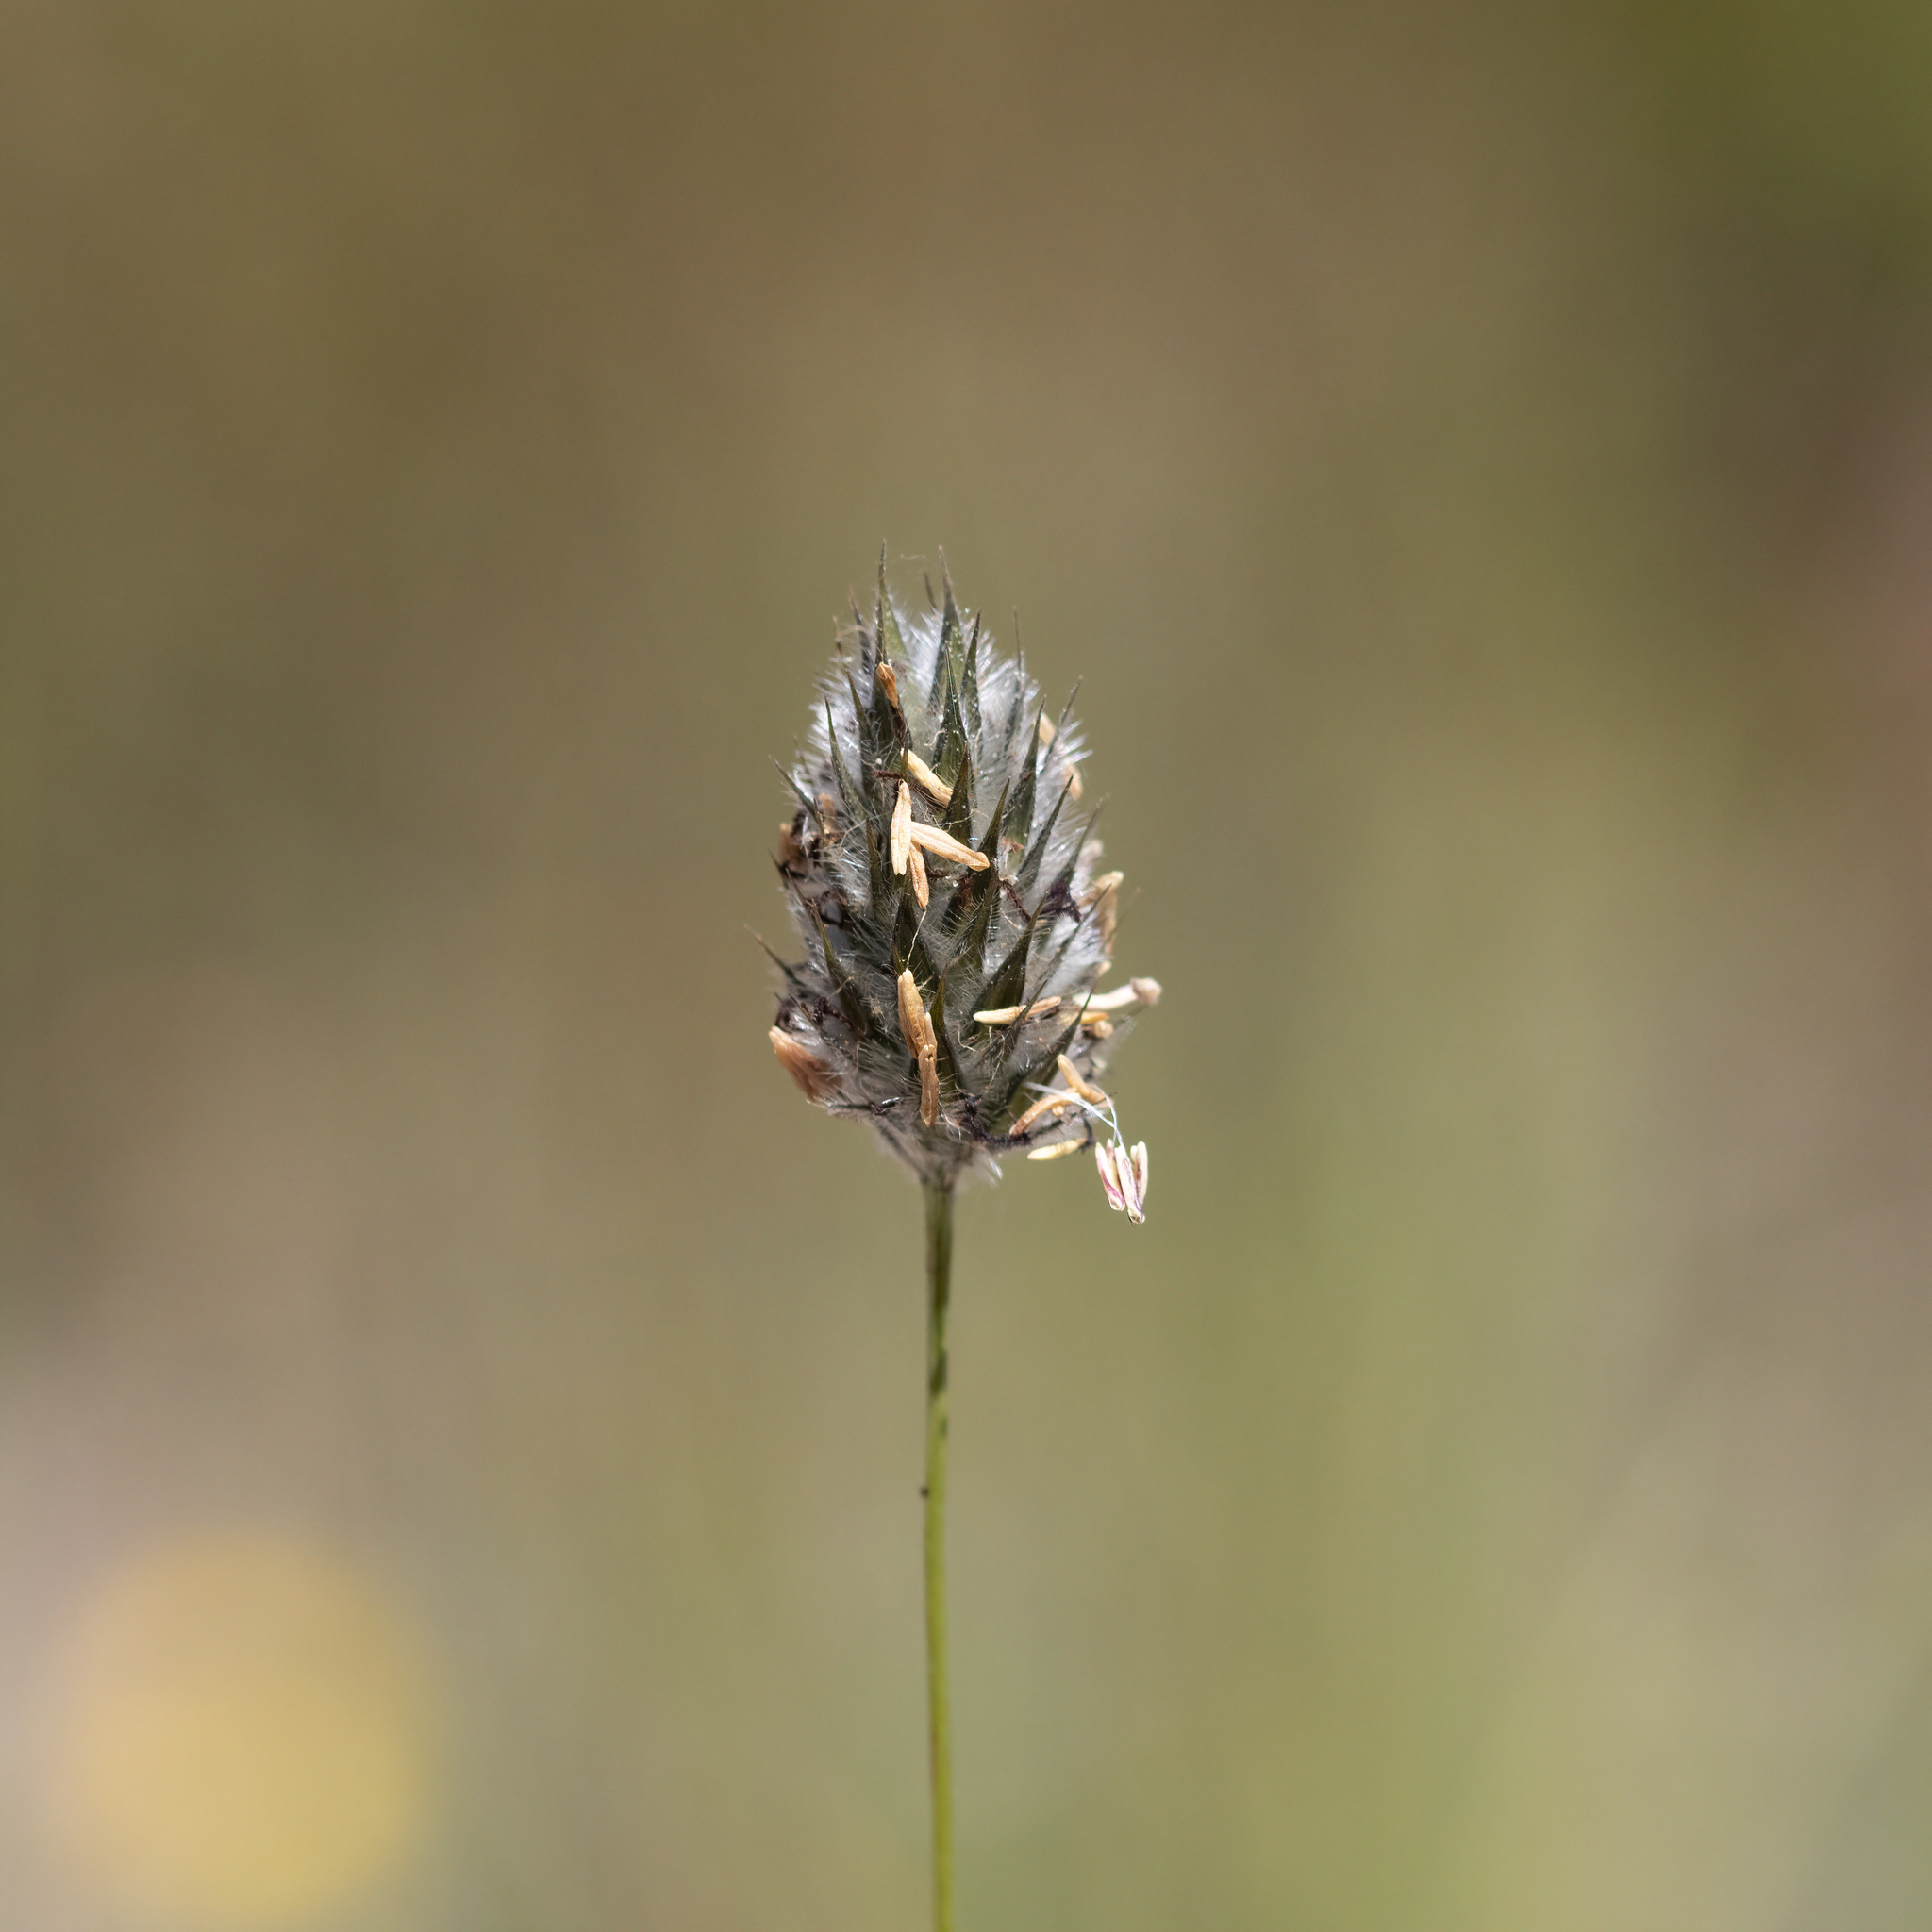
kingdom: Plantae
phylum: Tracheophyta
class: Liliopsida
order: Poales
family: Poaceae
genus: Neurachne
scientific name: Neurachne alopecuroidea
